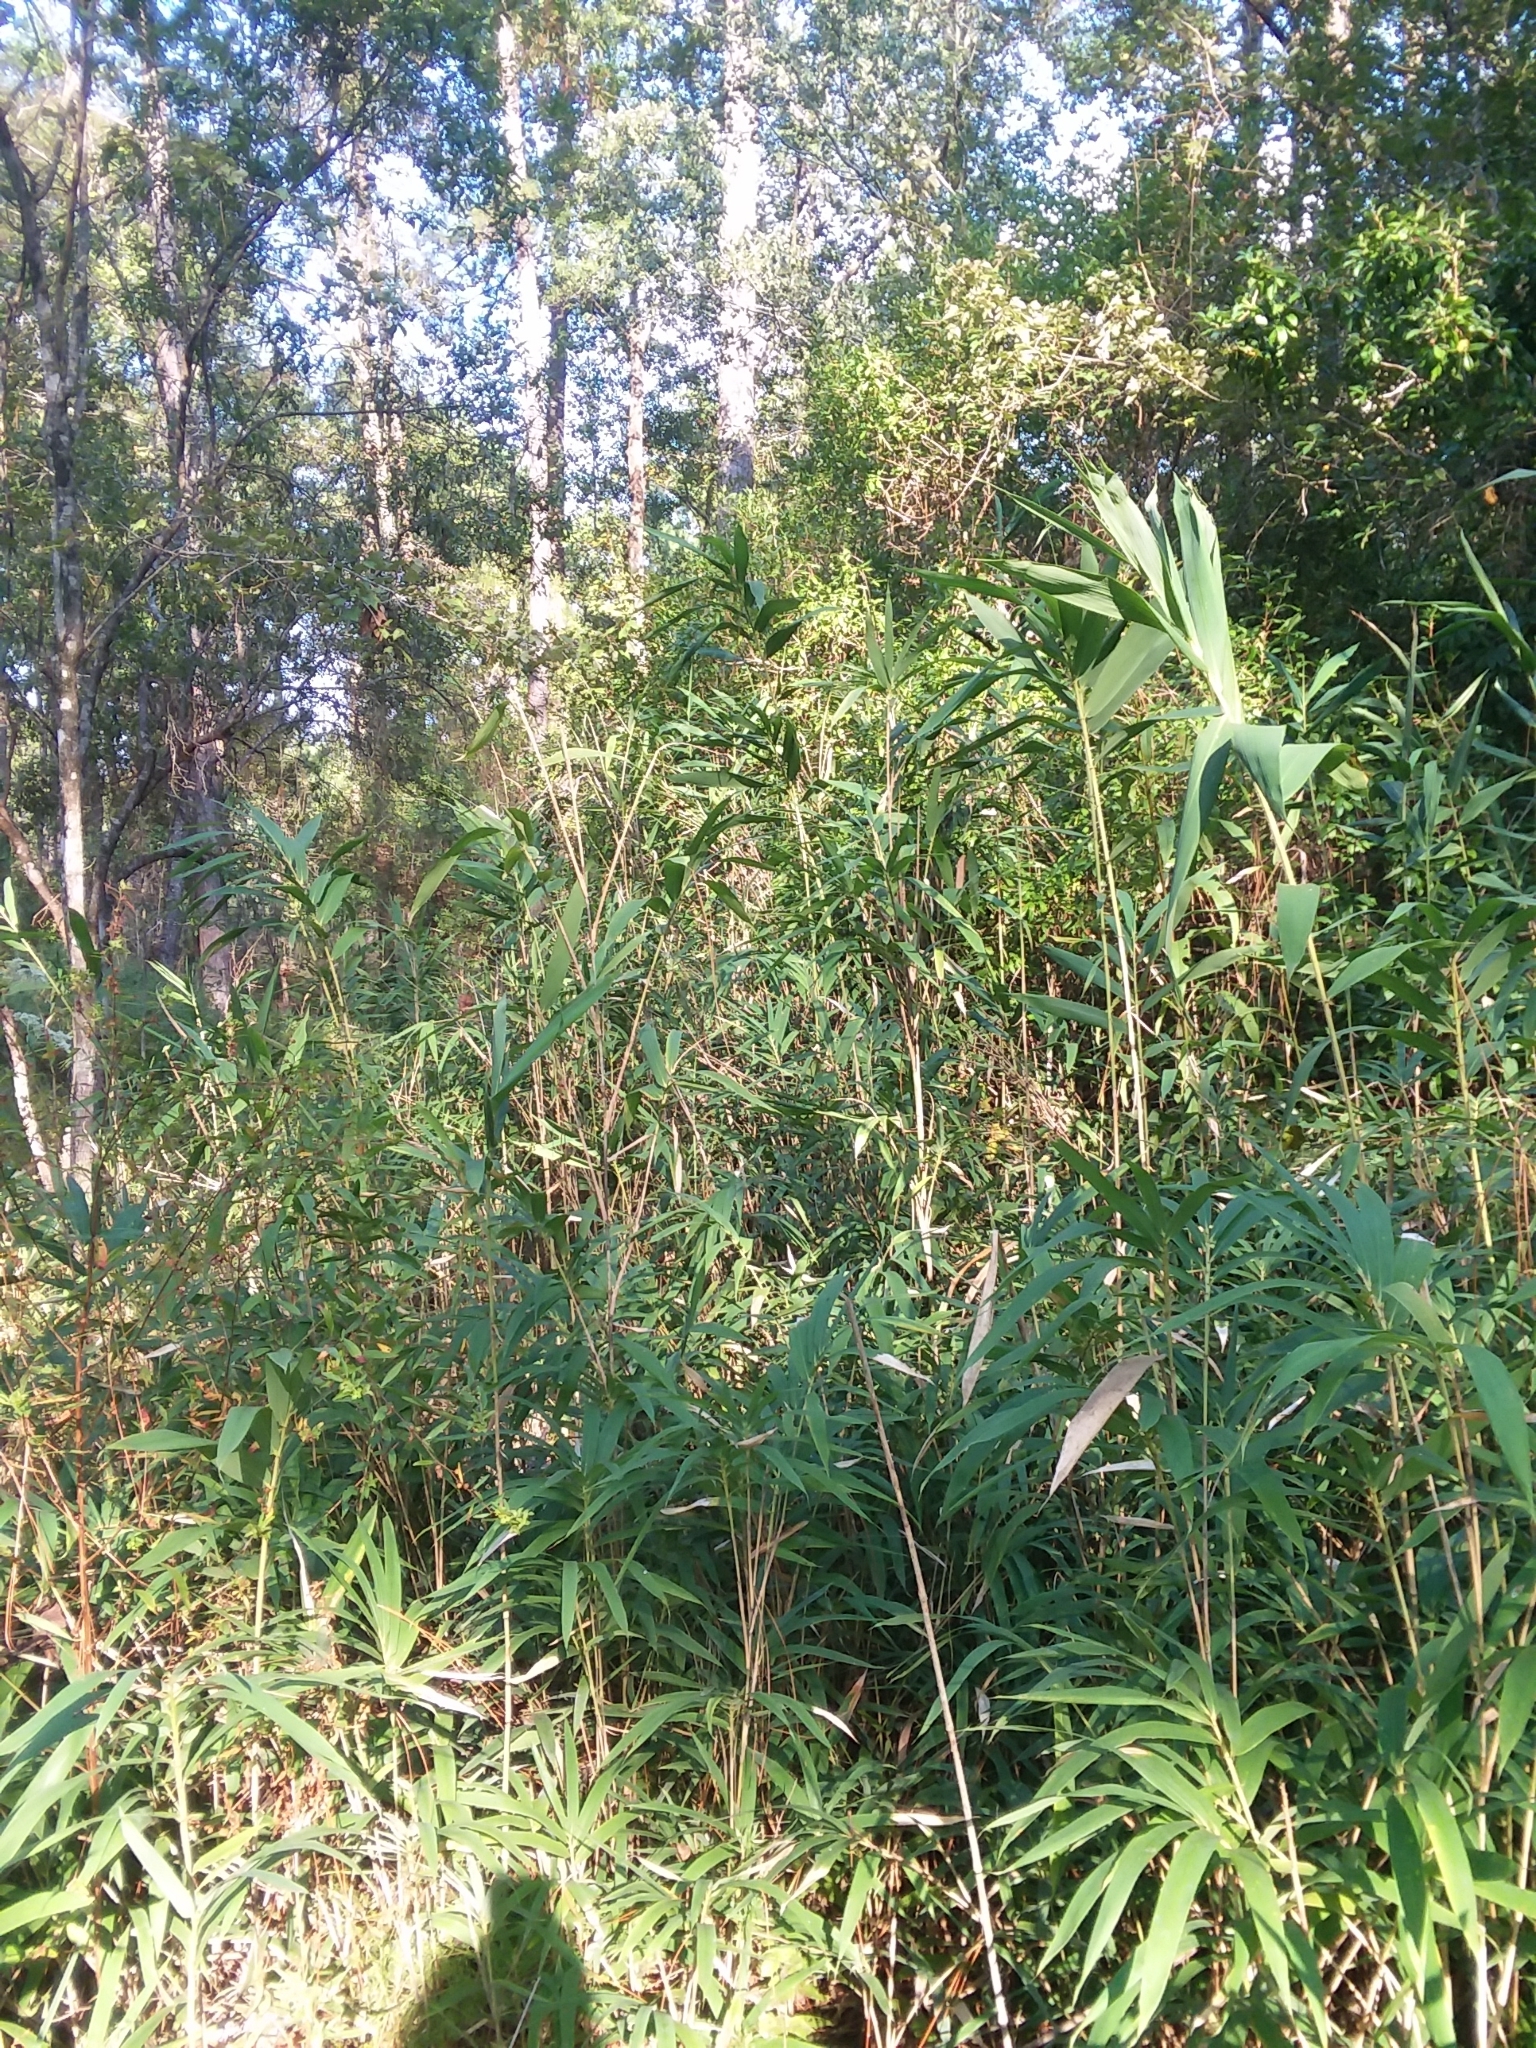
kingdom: Plantae
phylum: Tracheophyta
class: Liliopsida
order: Poales
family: Poaceae
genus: Arundinaria
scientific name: Arundinaria tecta
